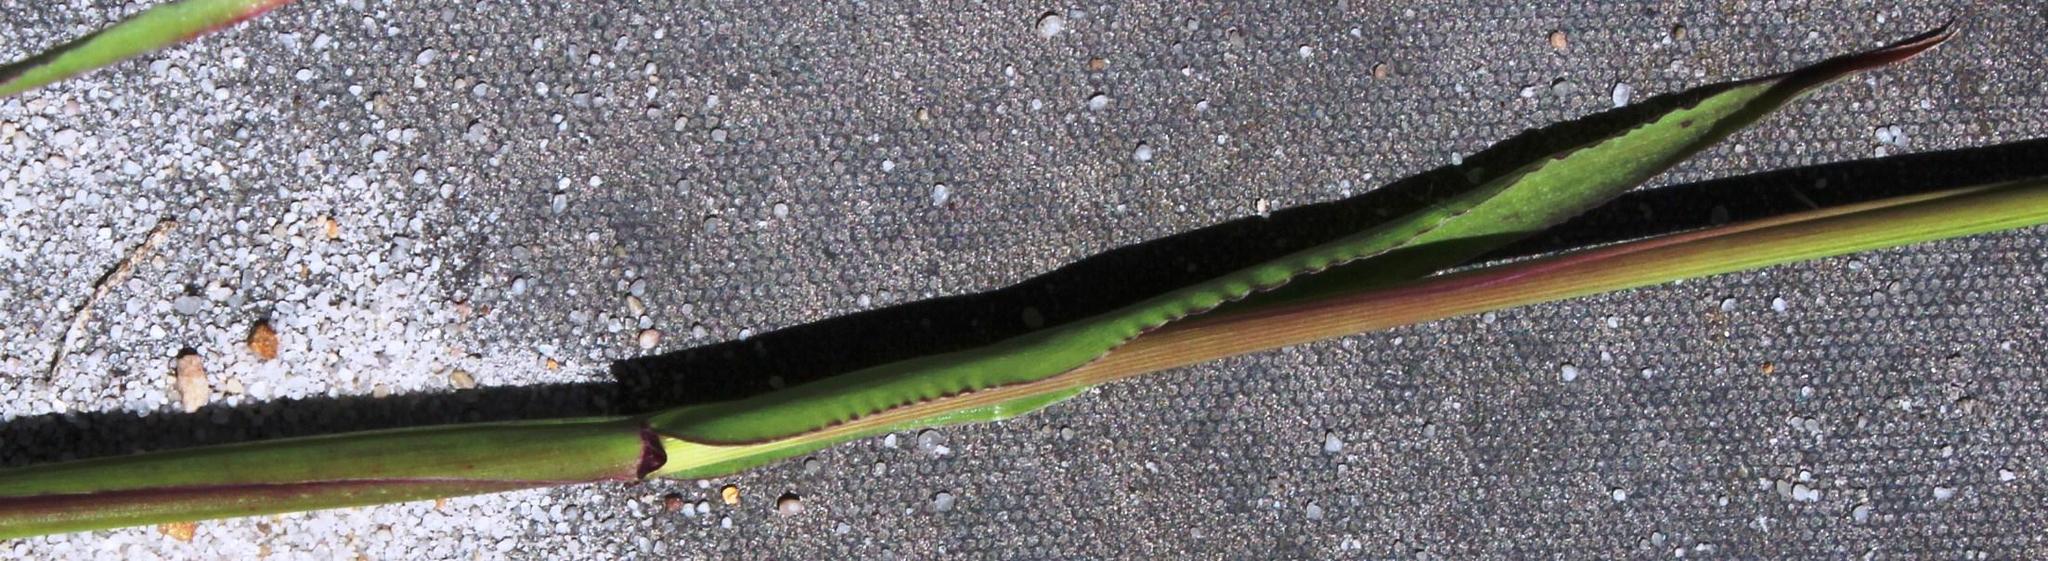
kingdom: Plantae
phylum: Tracheophyta
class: Liliopsida
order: Poales
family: Poaceae
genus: Ehrharta
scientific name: Ehrharta longiflora
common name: Longflowered veldtgrass
